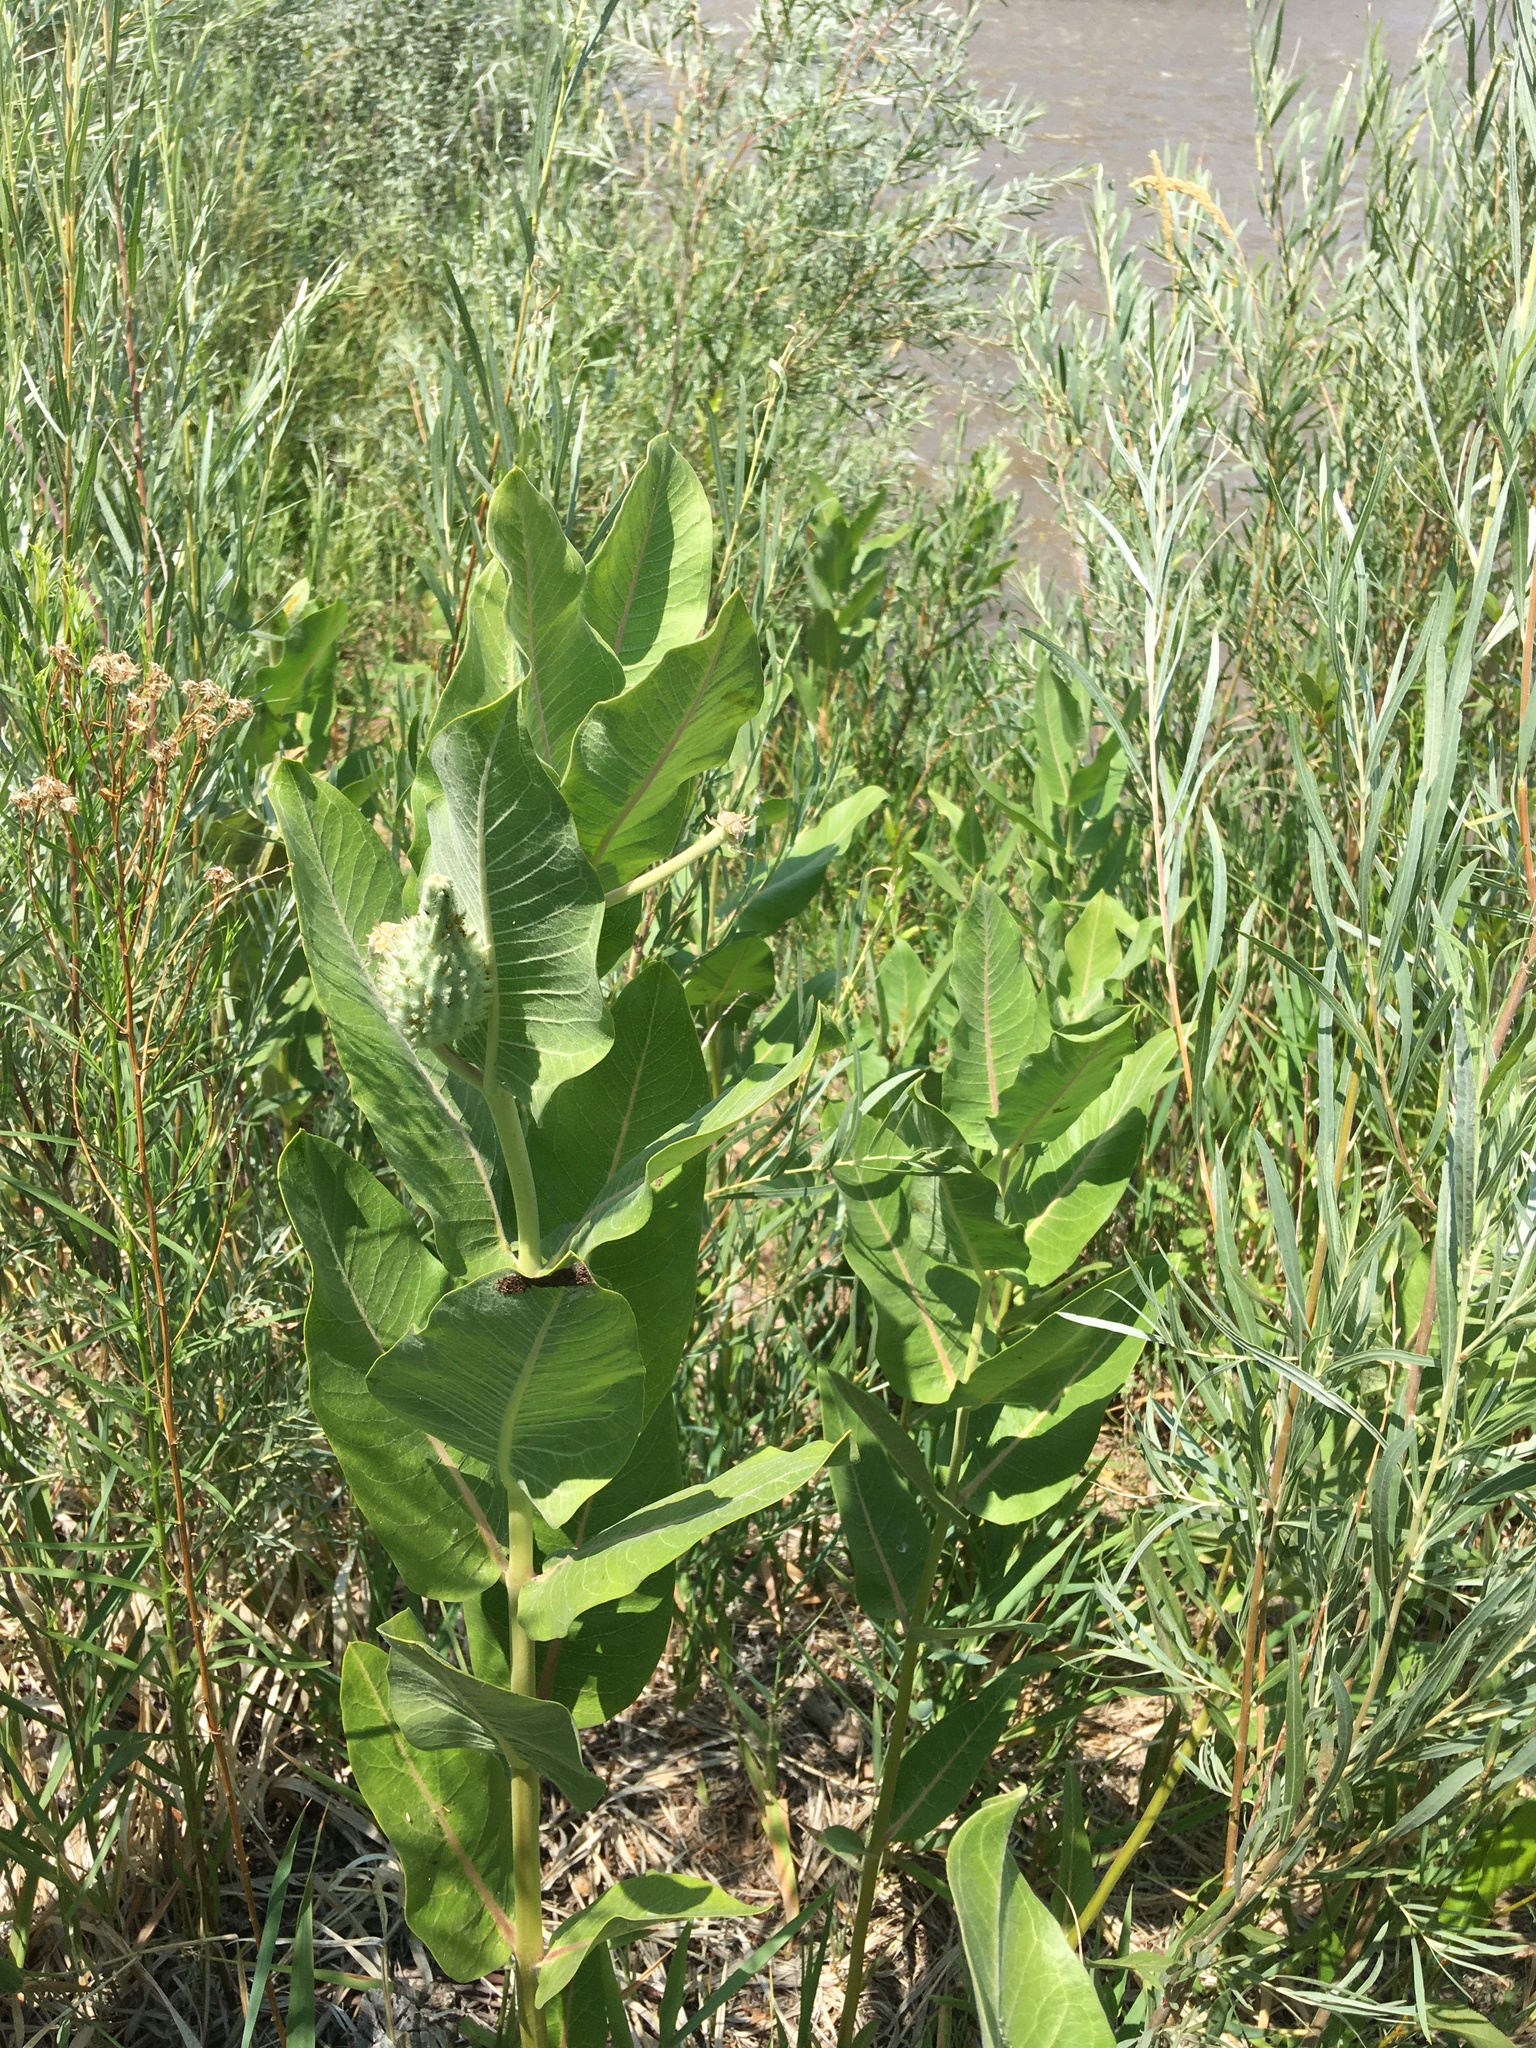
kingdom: Plantae
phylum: Tracheophyta
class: Magnoliopsida
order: Gentianales
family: Apocynaceae
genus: Asclepias
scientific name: Asclepias speciosa
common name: Showy milkweed
